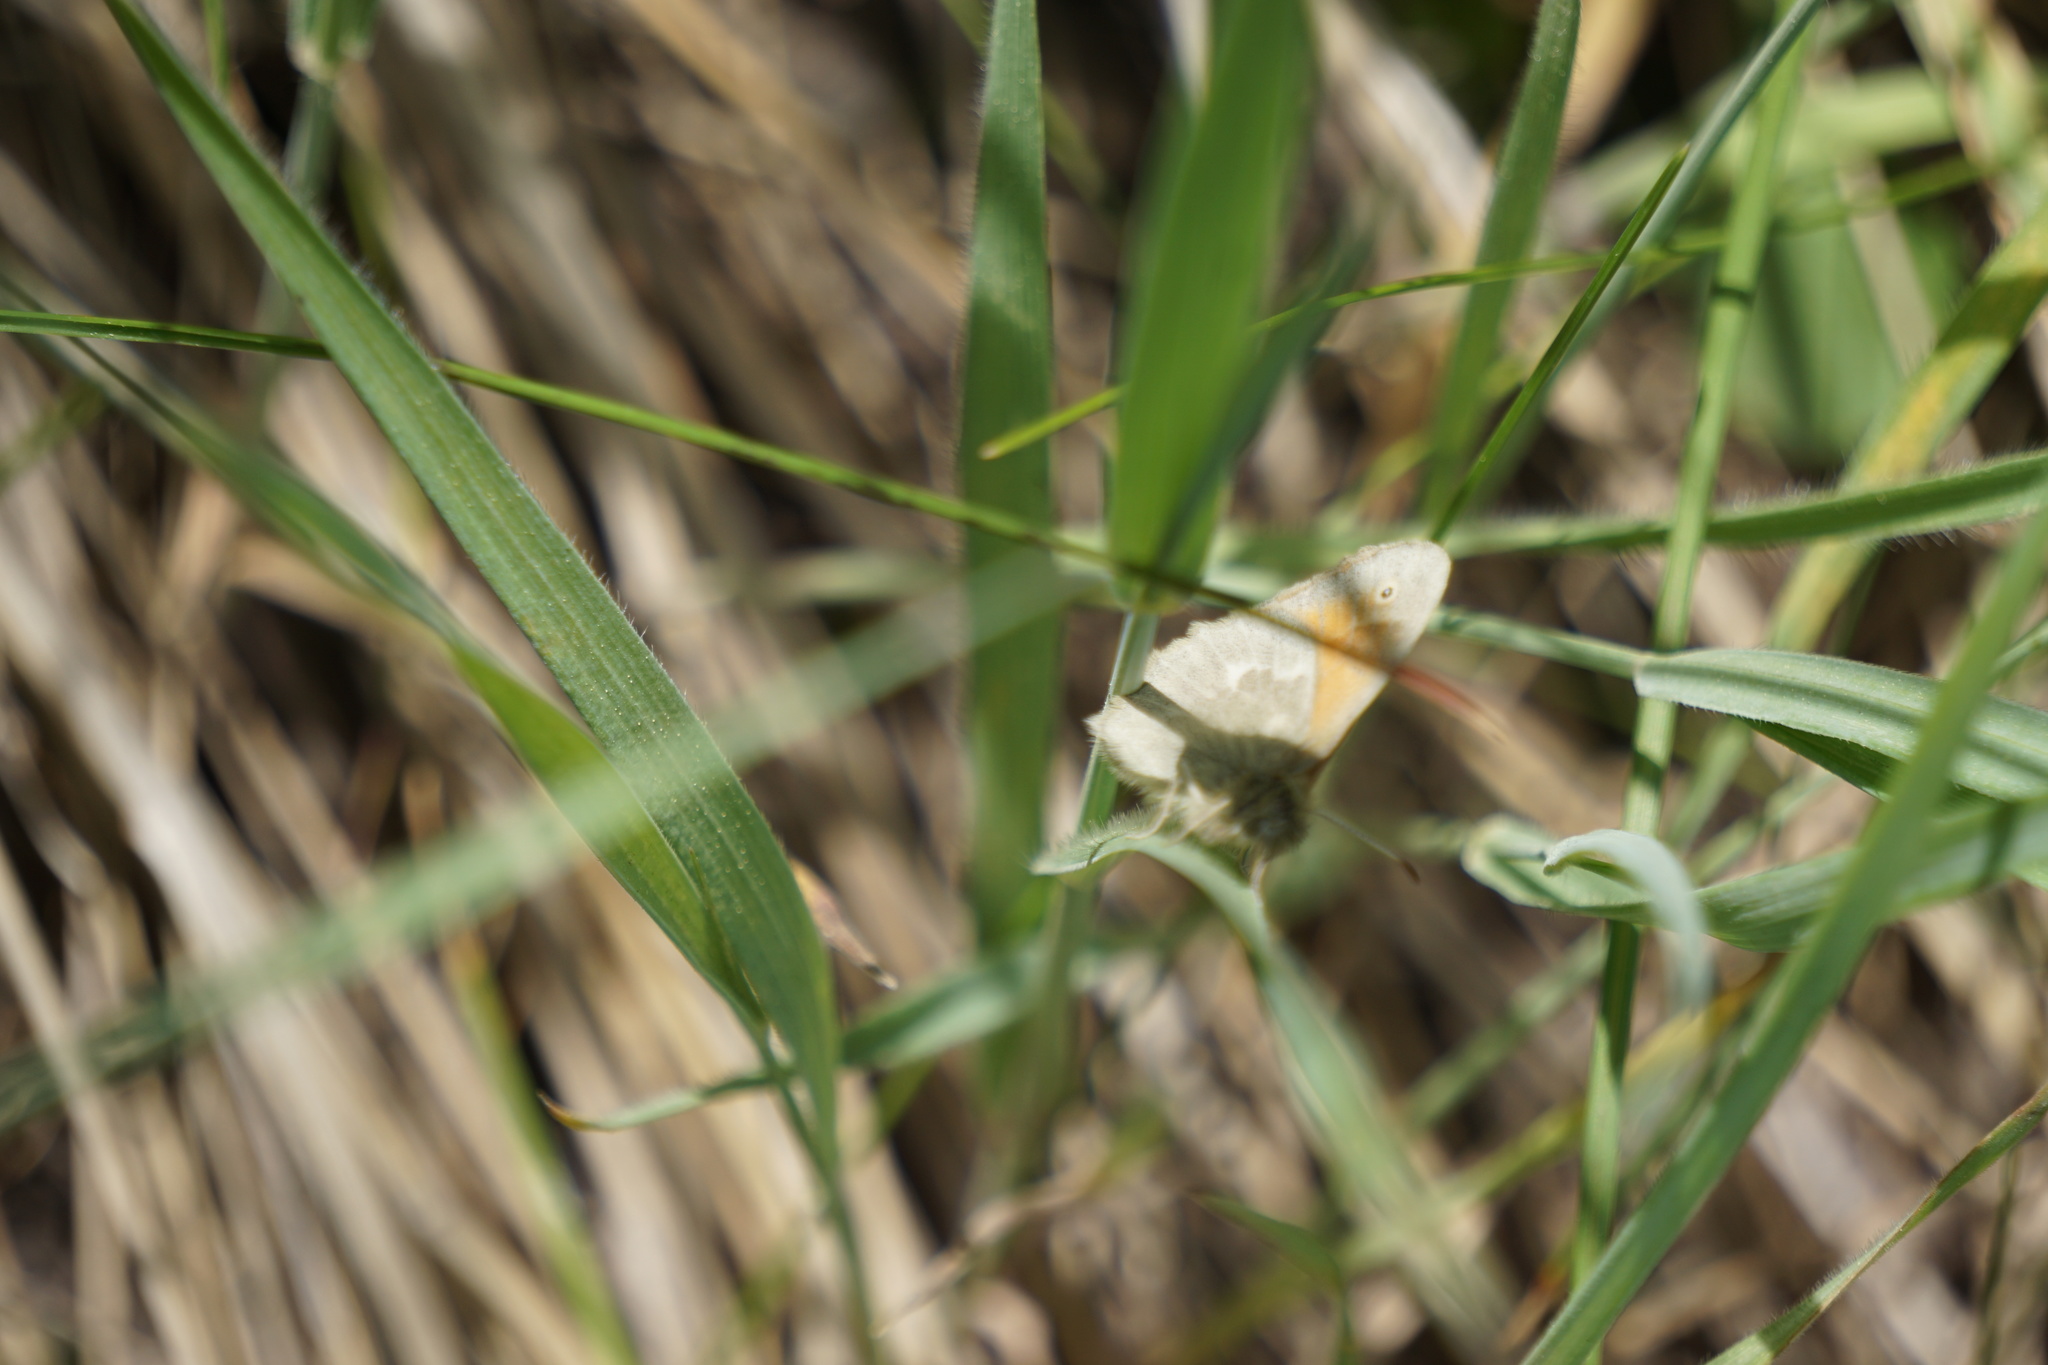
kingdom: Animalia
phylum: Arthropoda
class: Insecta
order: Lepidoptera
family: Nymphalidae
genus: Coenonympha
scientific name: Coenonympha california
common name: Common ringlet
